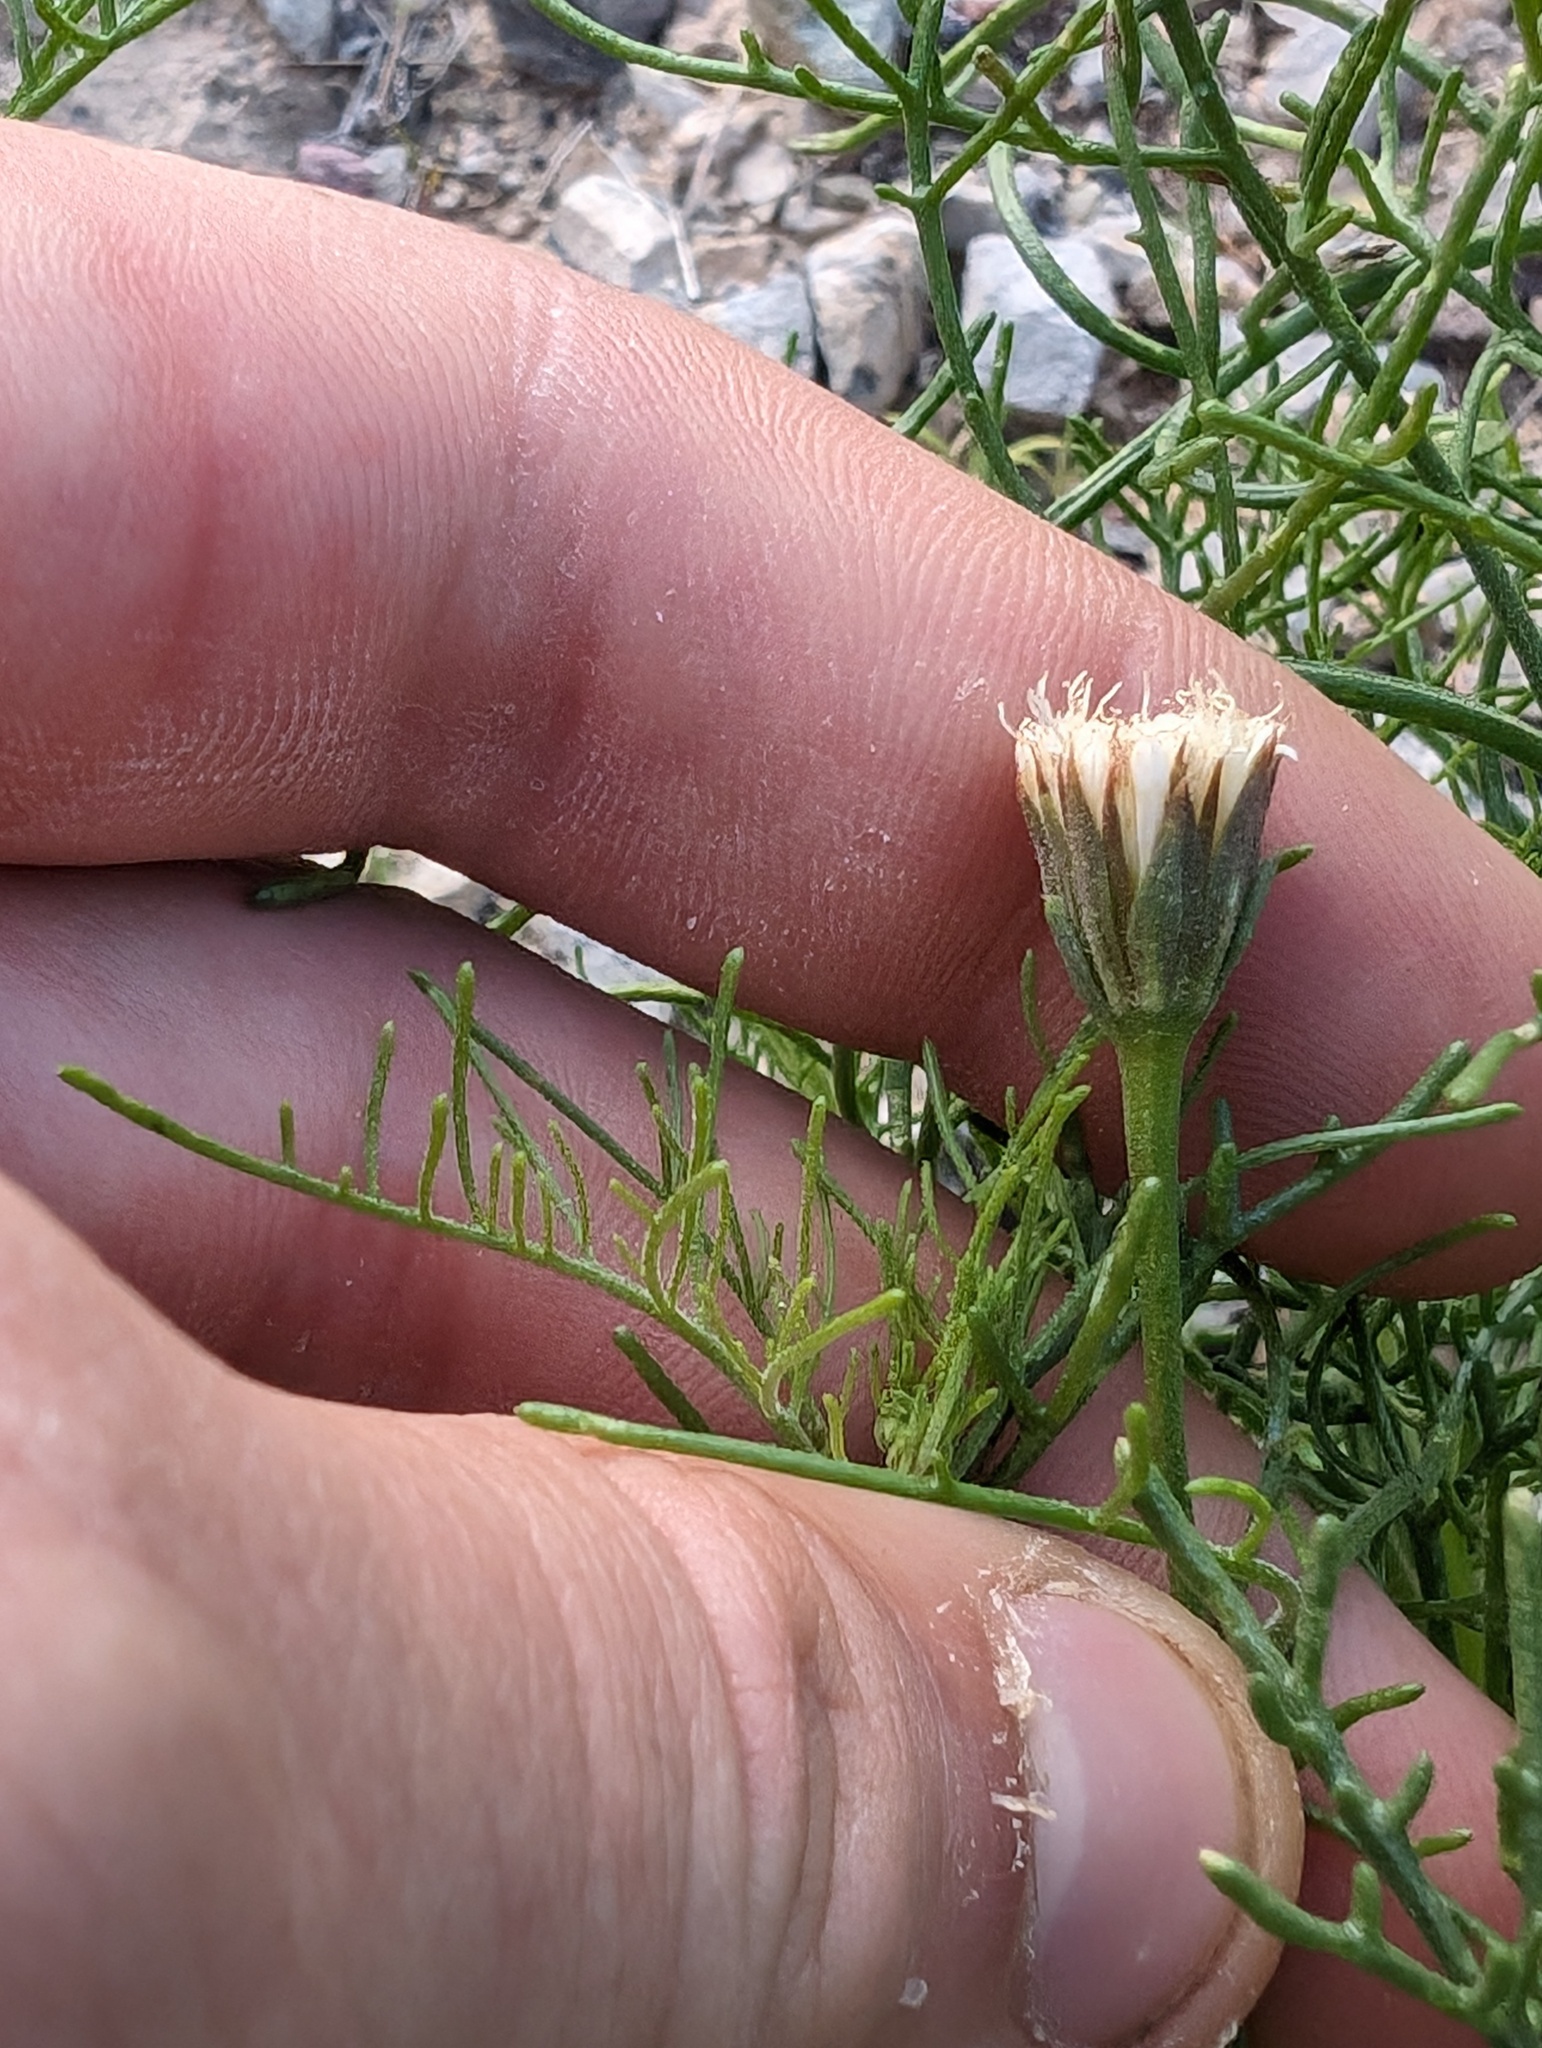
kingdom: Plantae
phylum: Tracheophyta
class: Magnoliopsida
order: Asterales
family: Asteraceae
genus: Chaenactis
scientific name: Chaenactis carphoclinia
